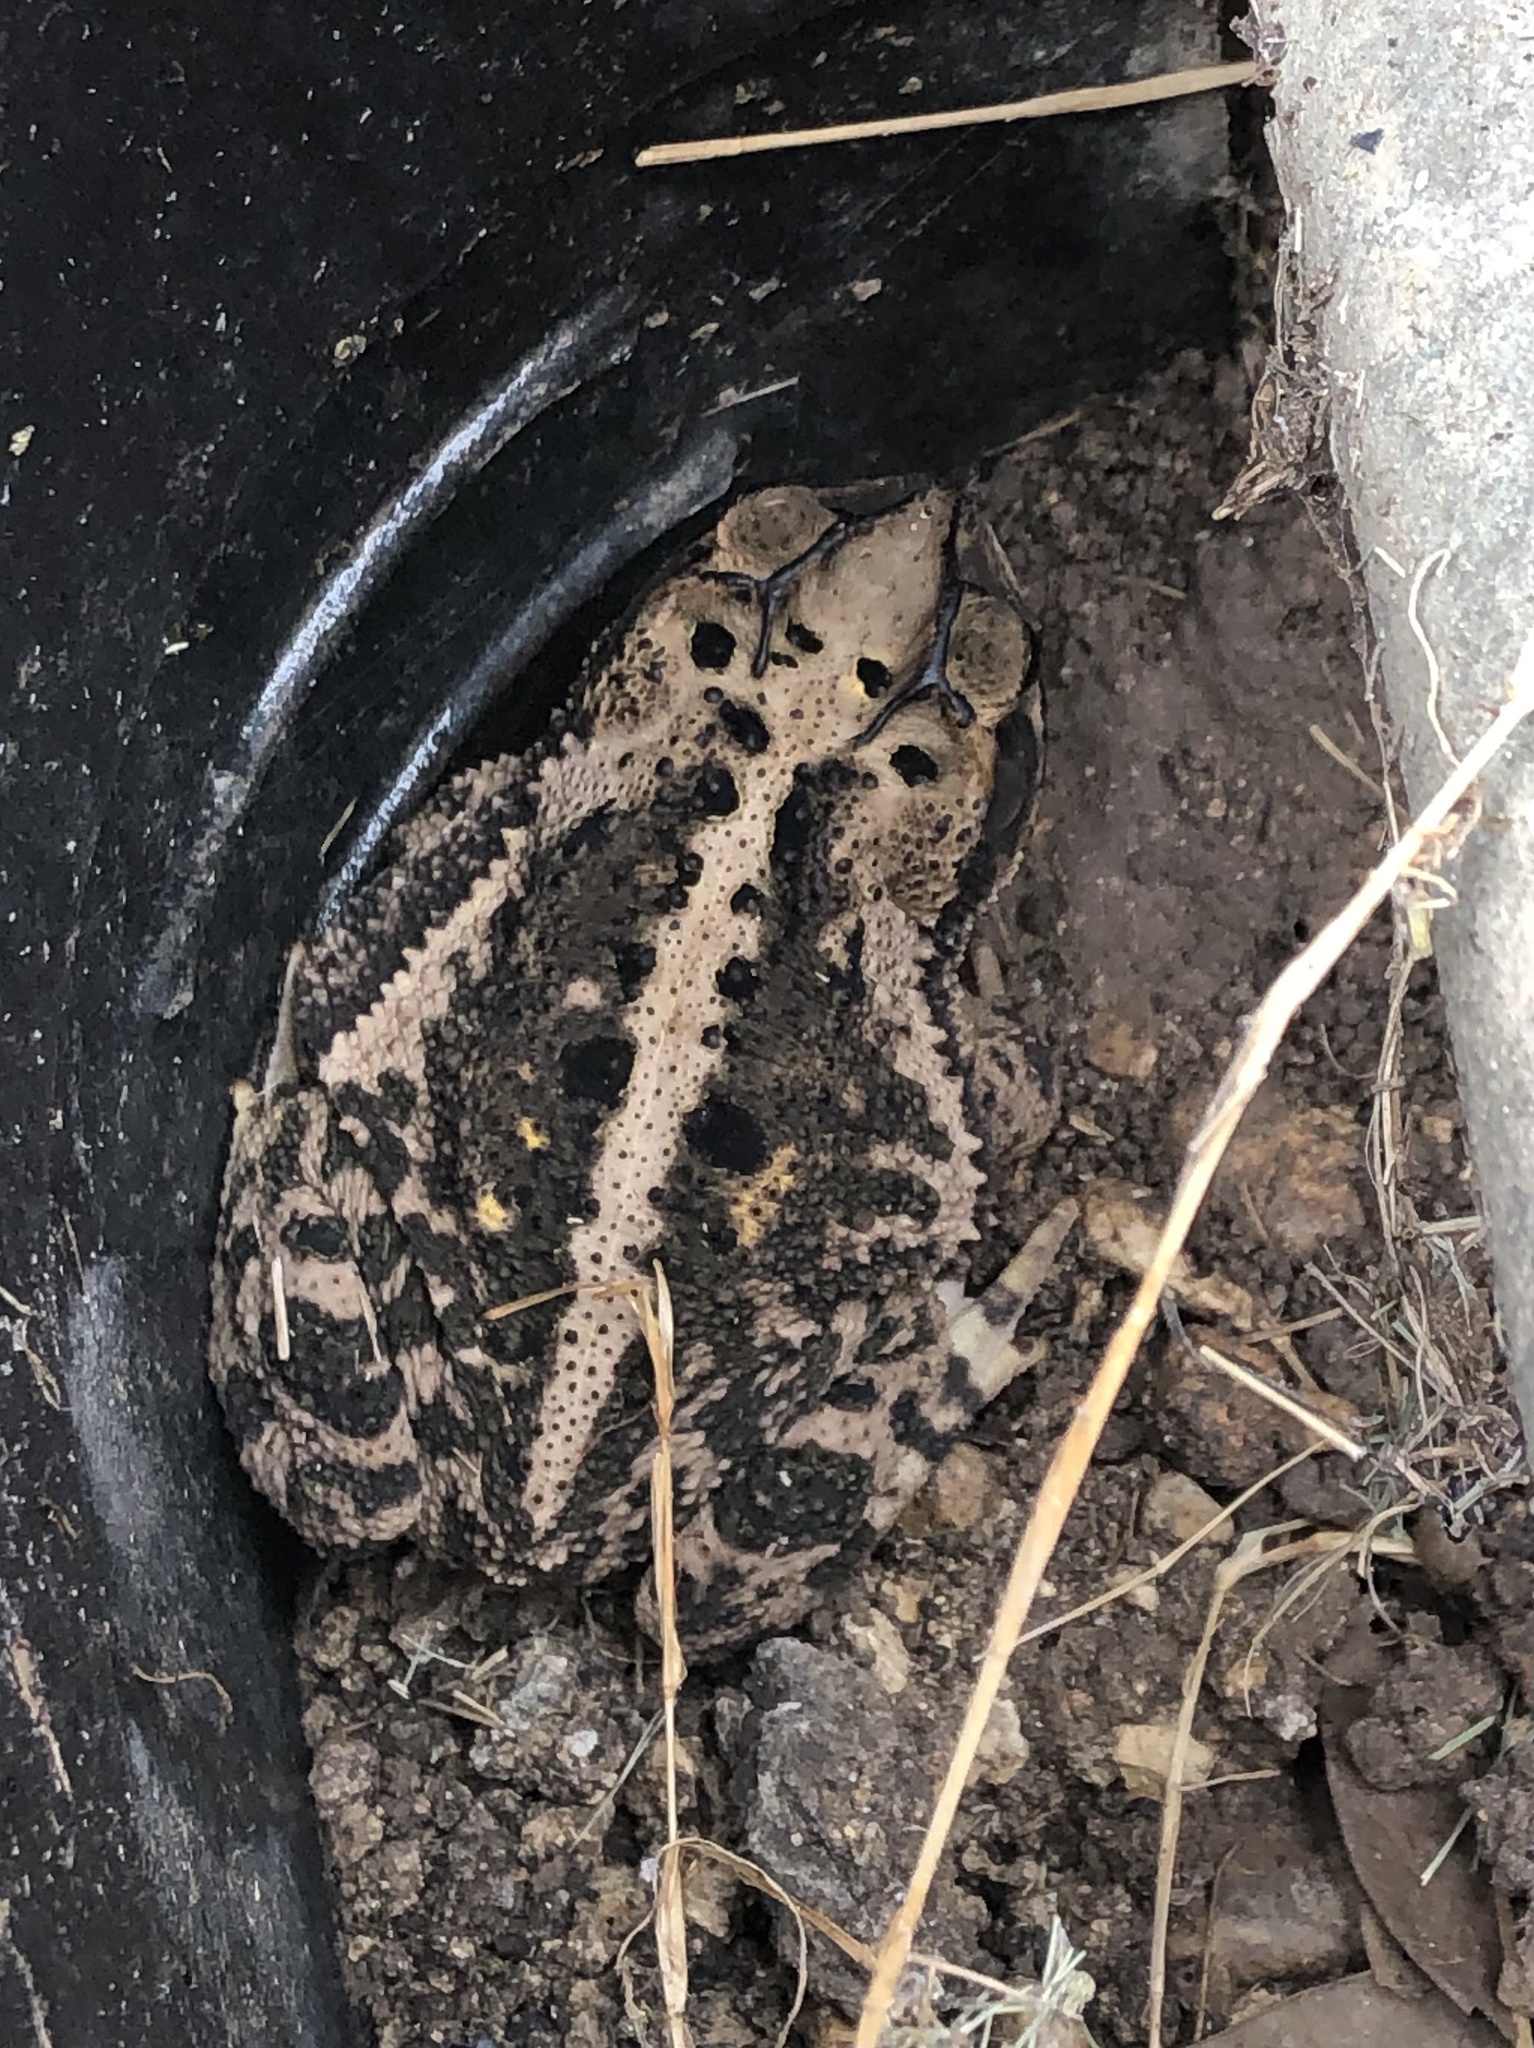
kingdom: Animalia
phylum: Chordata
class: Amphibia
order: Anura
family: Bufonidae
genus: Incilius
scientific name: Incilius nebulifer
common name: Gulf coast toad
